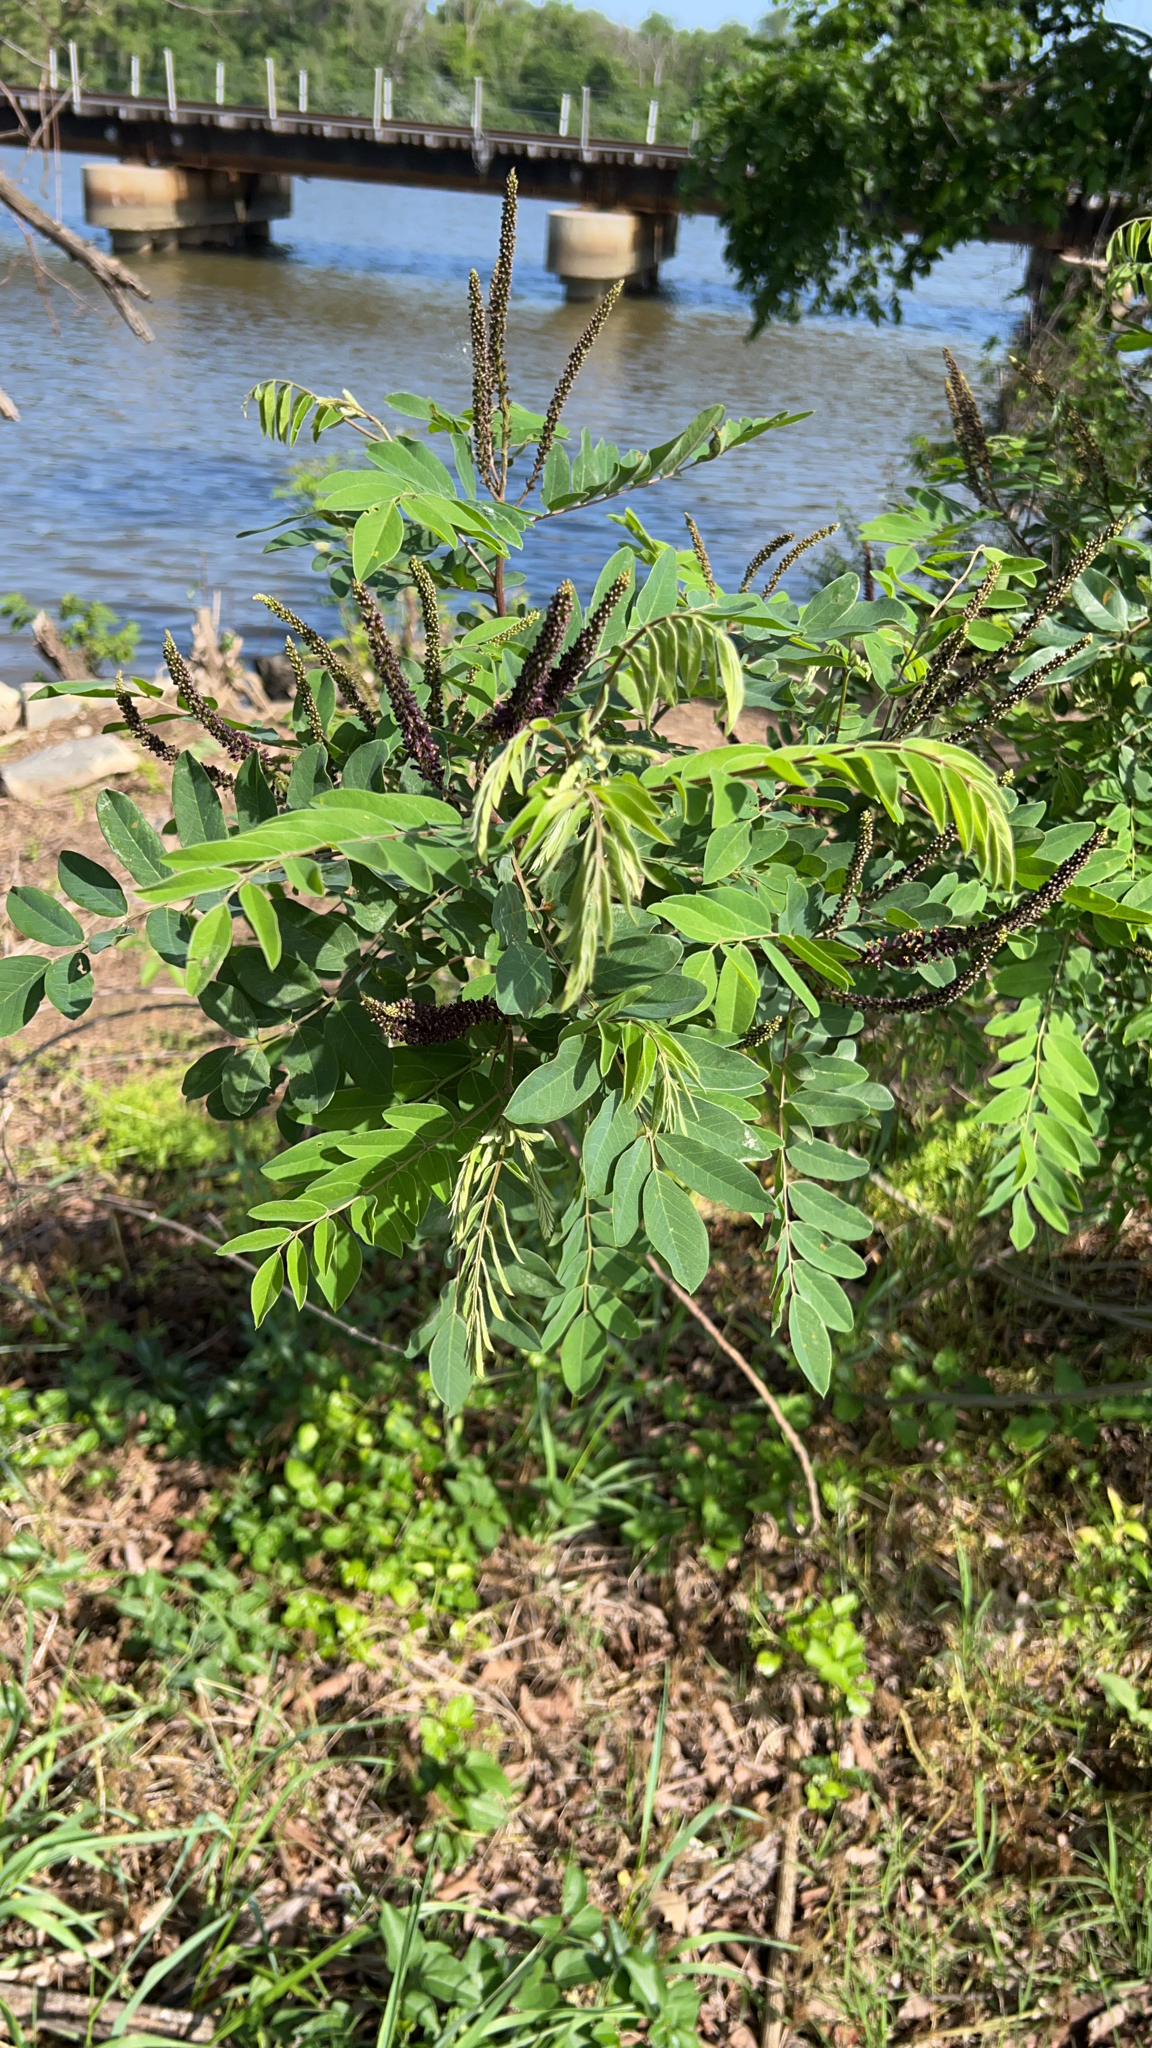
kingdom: Plantae
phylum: Tracheophyta
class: Magnoliopsida
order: Fabales
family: Fabaceae
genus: Amorpha
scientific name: Amorpha fruticosa
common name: False indigo
